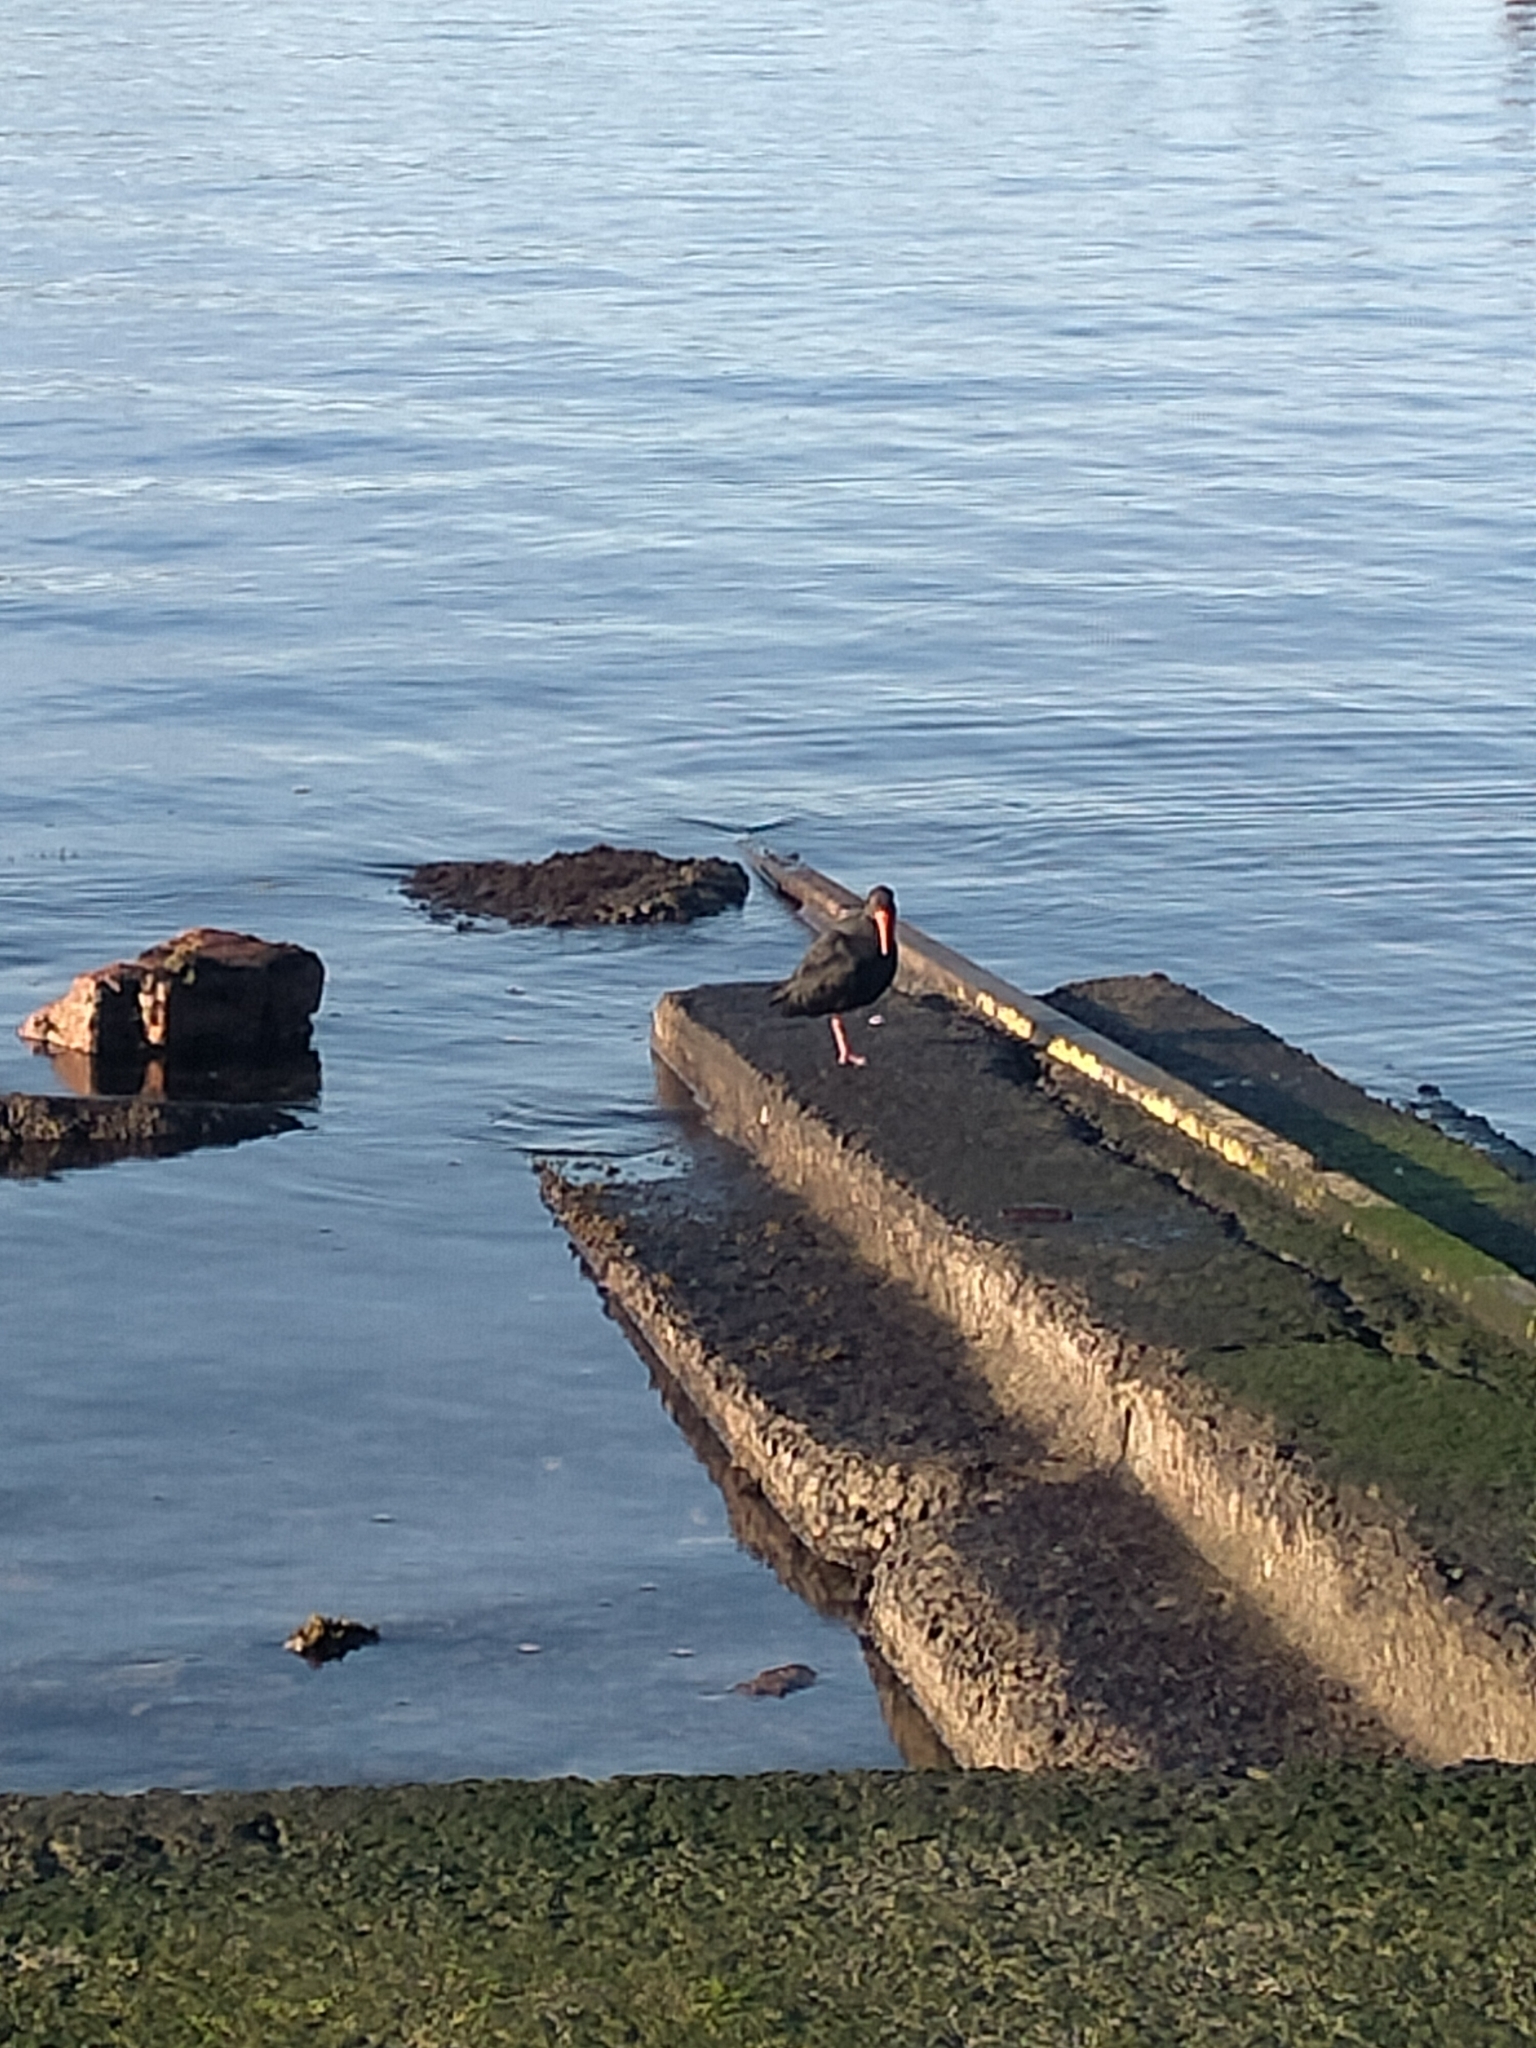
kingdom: Animalia
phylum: Chordata
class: Aves
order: Charadriiformes
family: Haematopodidae
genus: Haematopus
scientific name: Haematopus unicolor
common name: Variable oystercatcher
